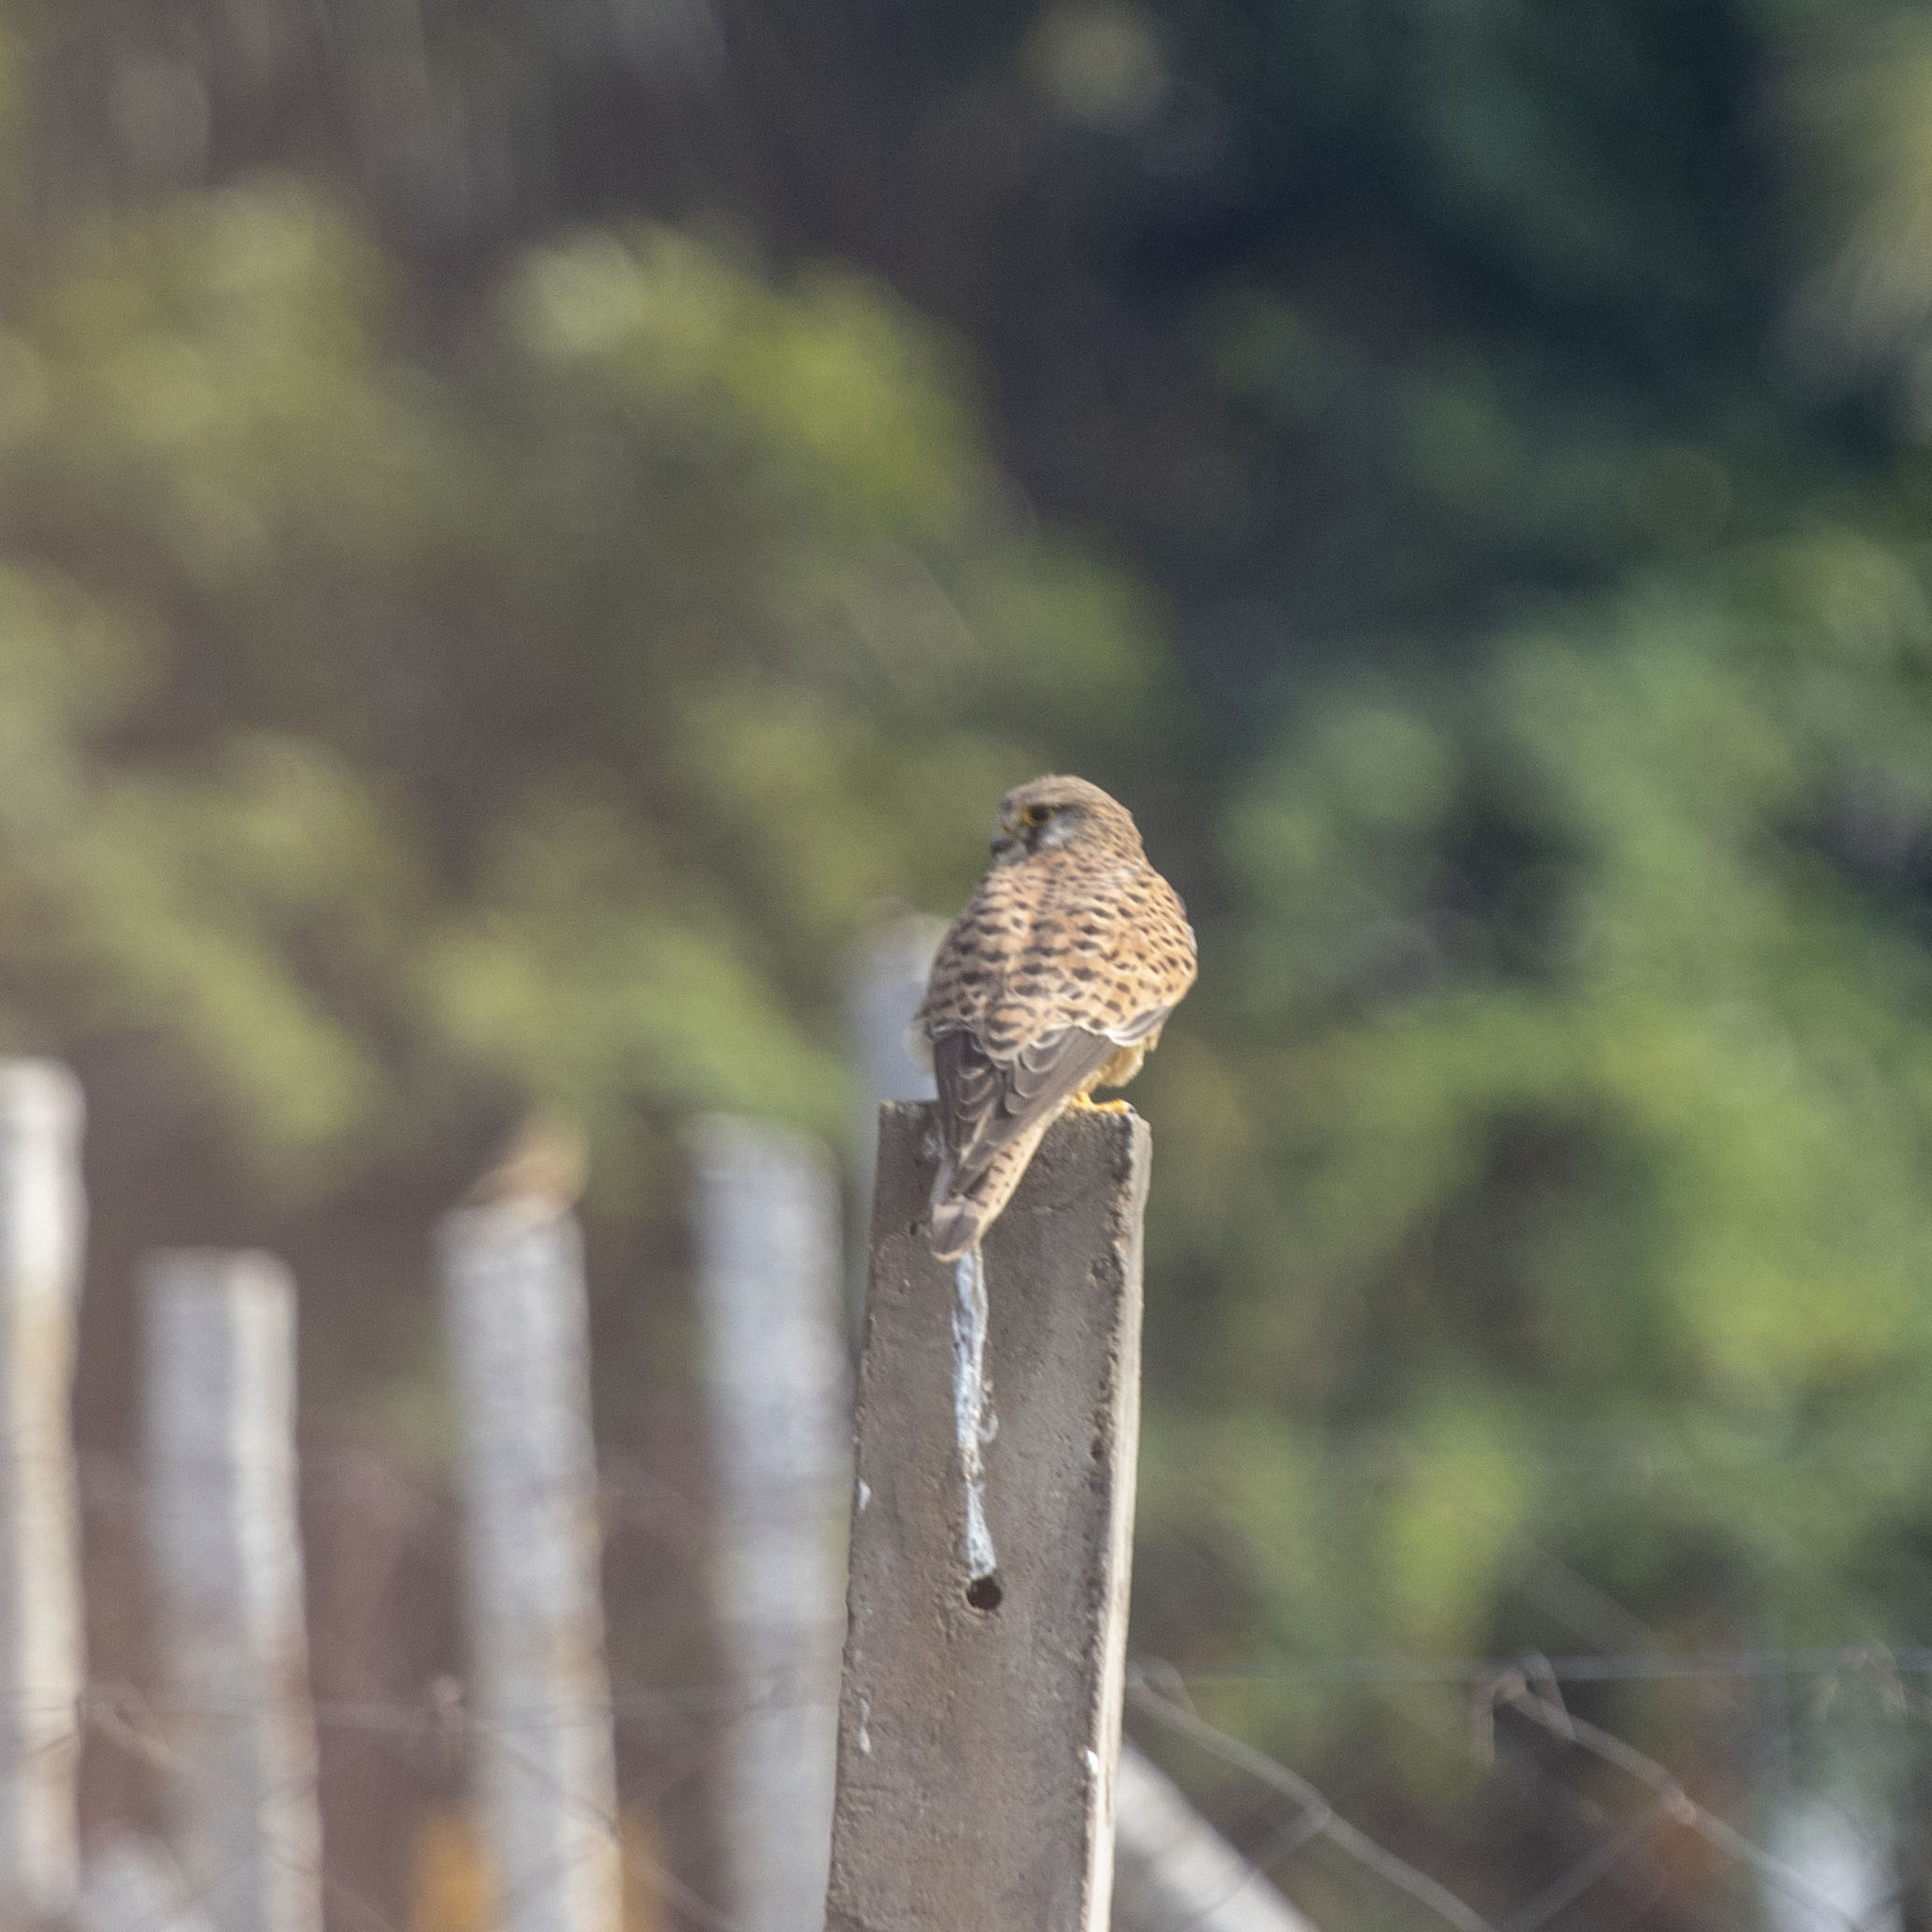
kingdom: Animalia
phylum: Chordata
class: Aves
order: Falconiformes
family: Falconidae
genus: Falco
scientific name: Falco tinnunculus
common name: Common kestrel
